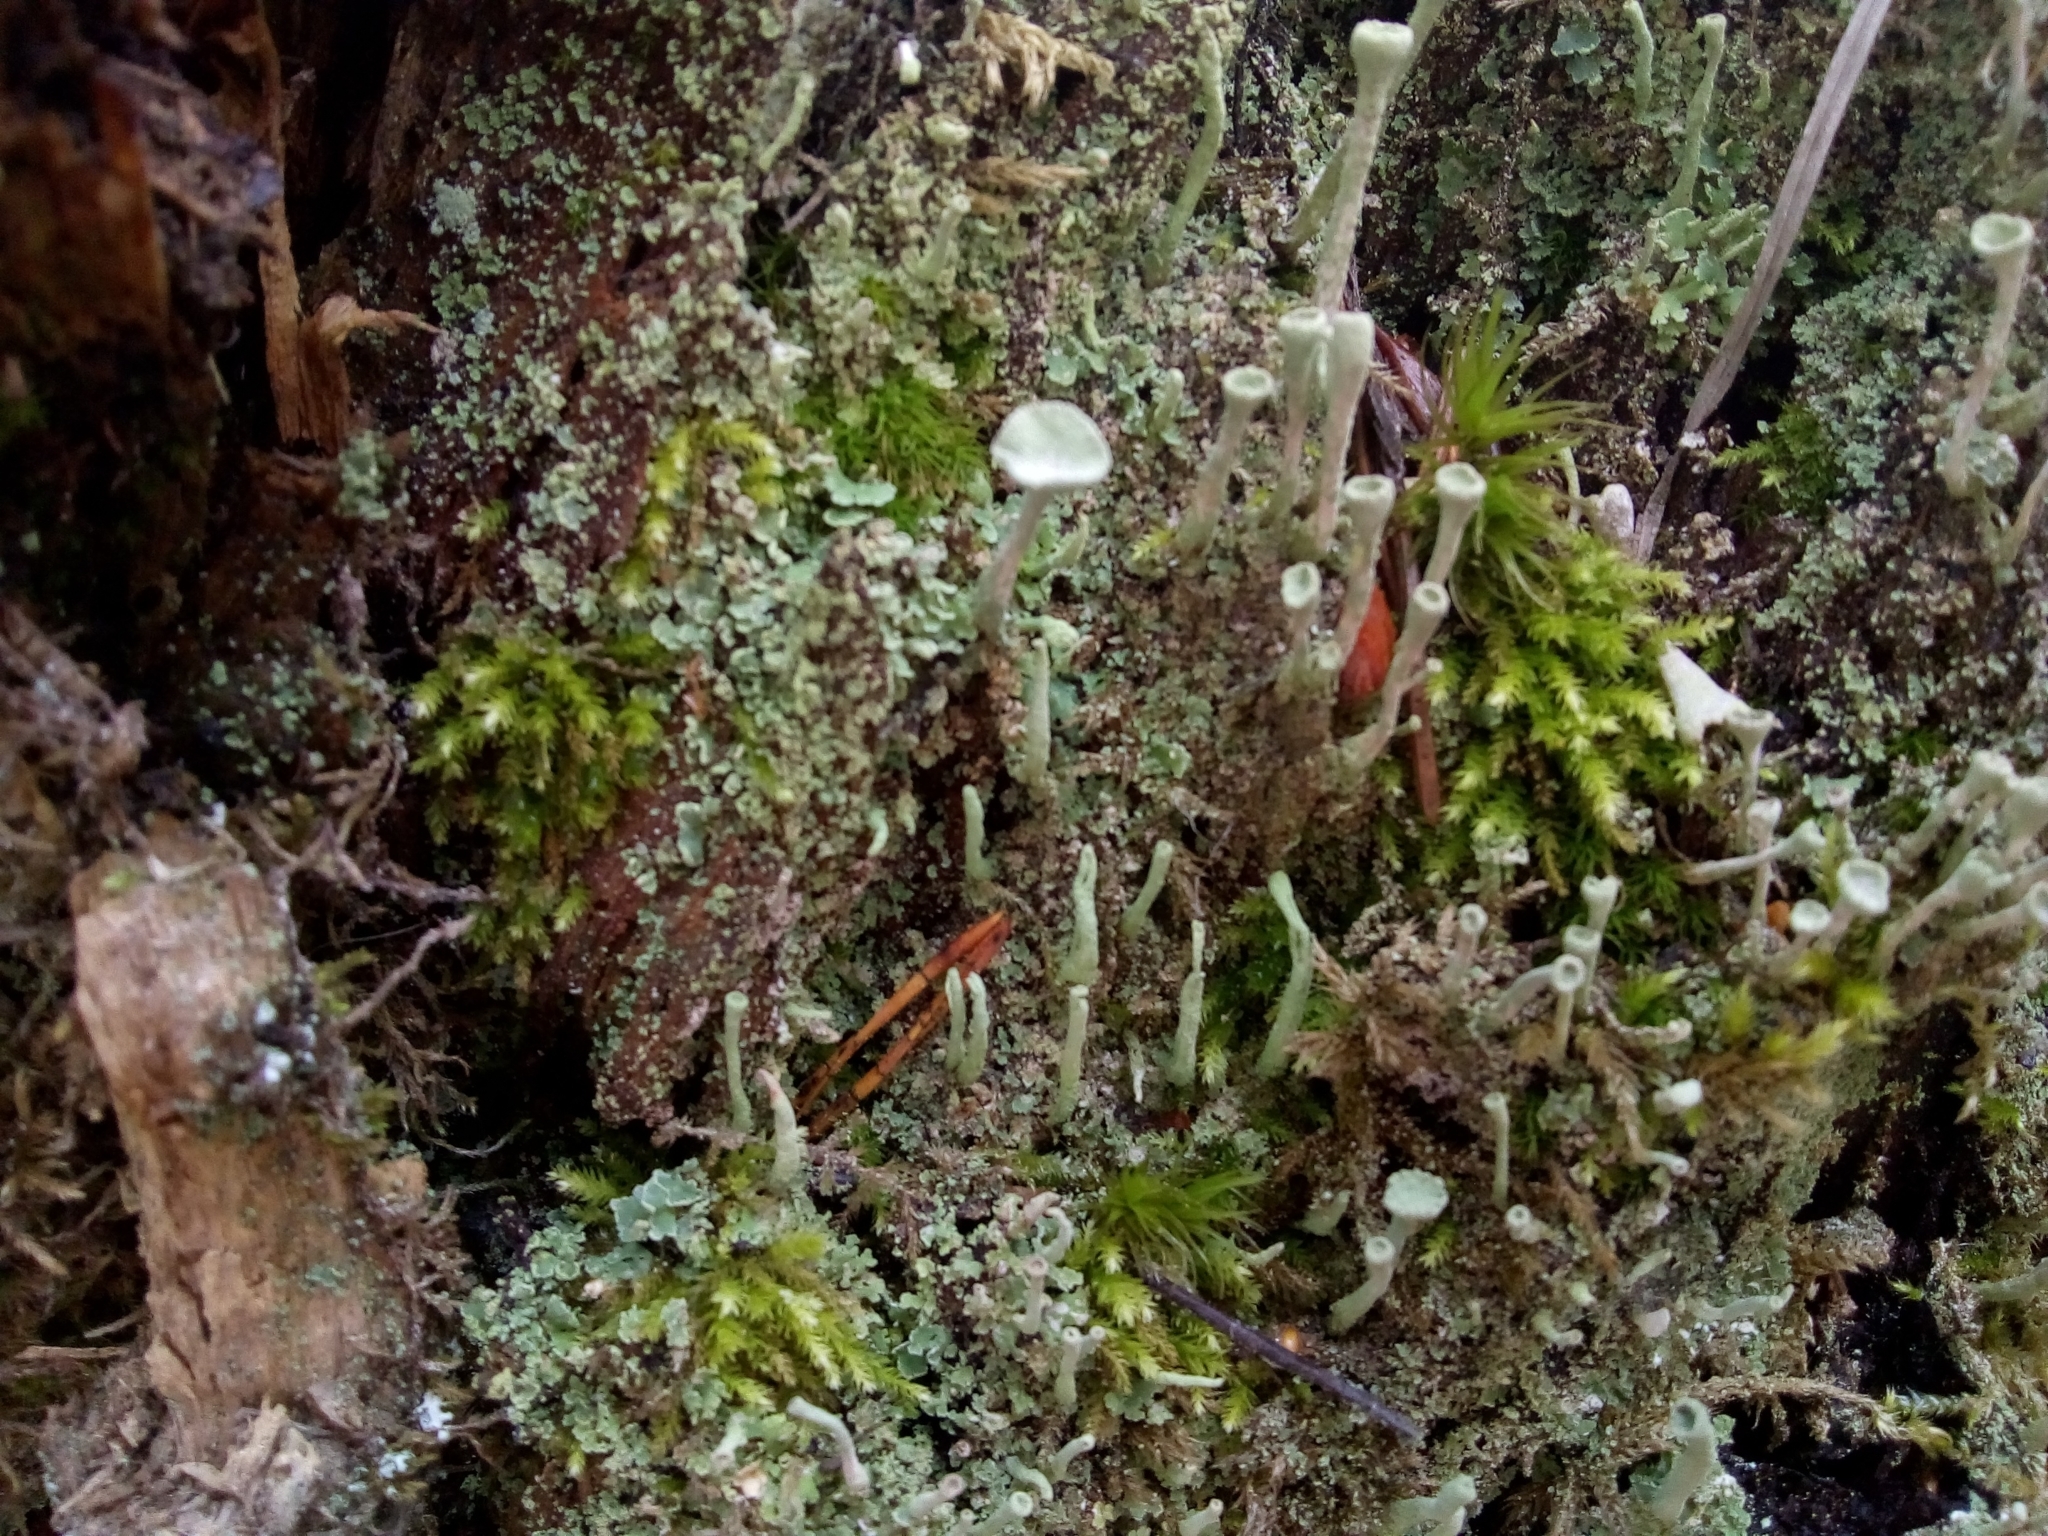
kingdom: Fungi
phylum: Ascomycota
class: Lecanoromycetes
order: Lecanorales
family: Cladoniaceae
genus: Cladonia
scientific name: Cladonia fimbriata
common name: Powdered trumpet lichen
